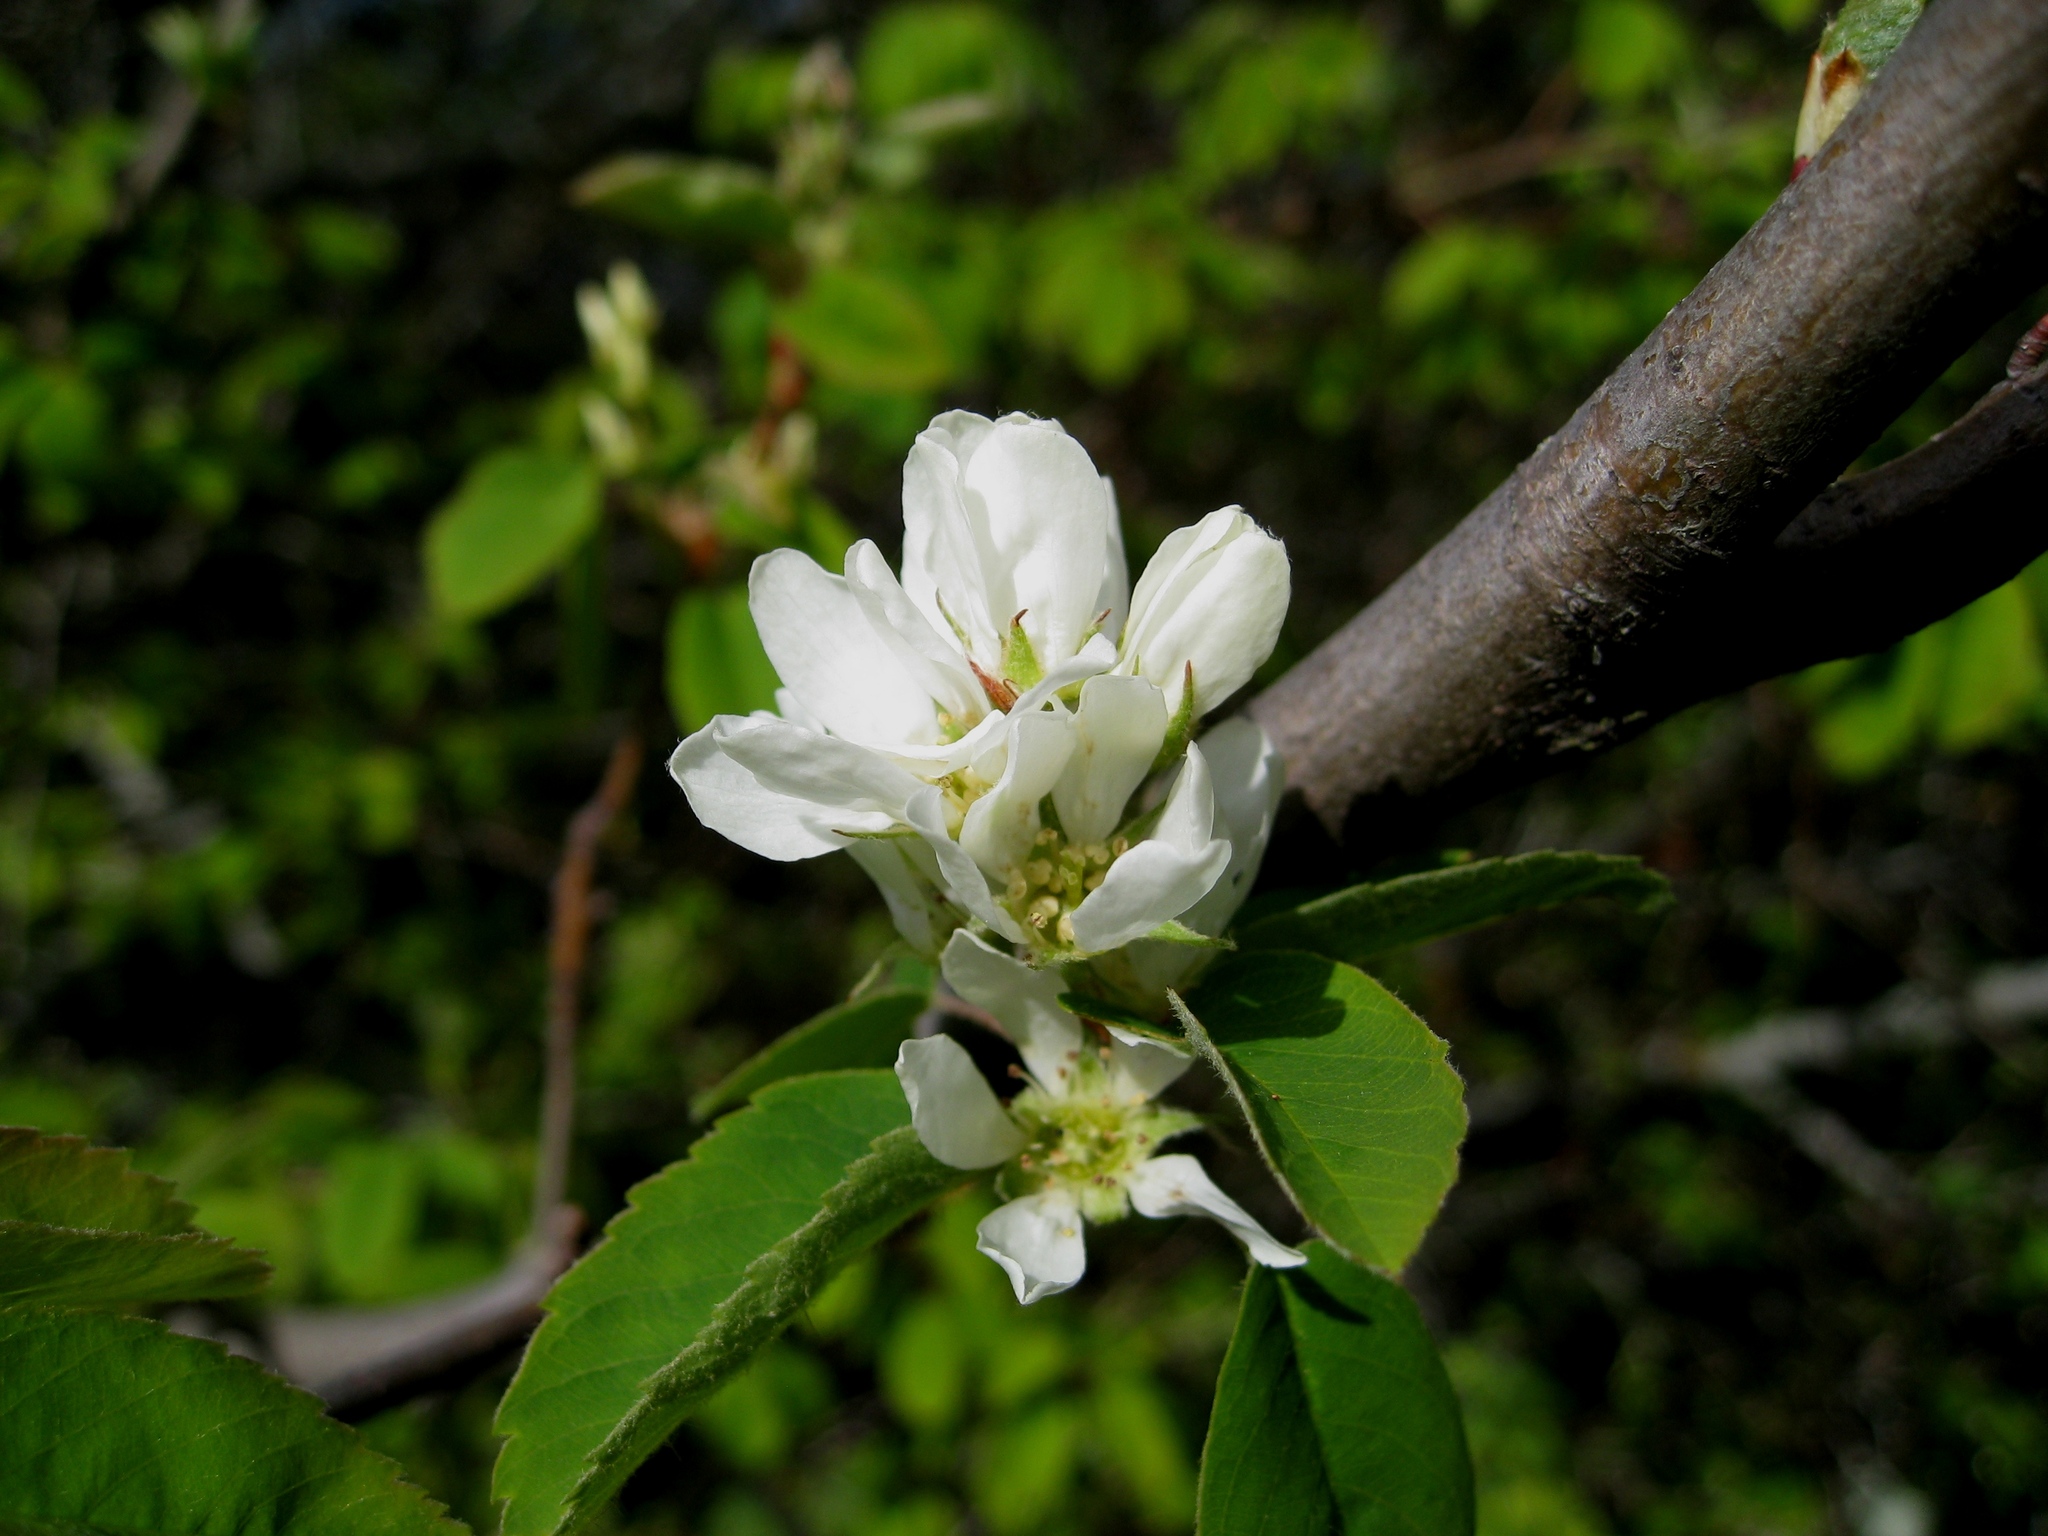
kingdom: Plantae
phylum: Tracheophyta
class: Magnoliopsida
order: Rosales
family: Rosaceae
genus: Amelanchier
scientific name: Amelanchier alnifolia
